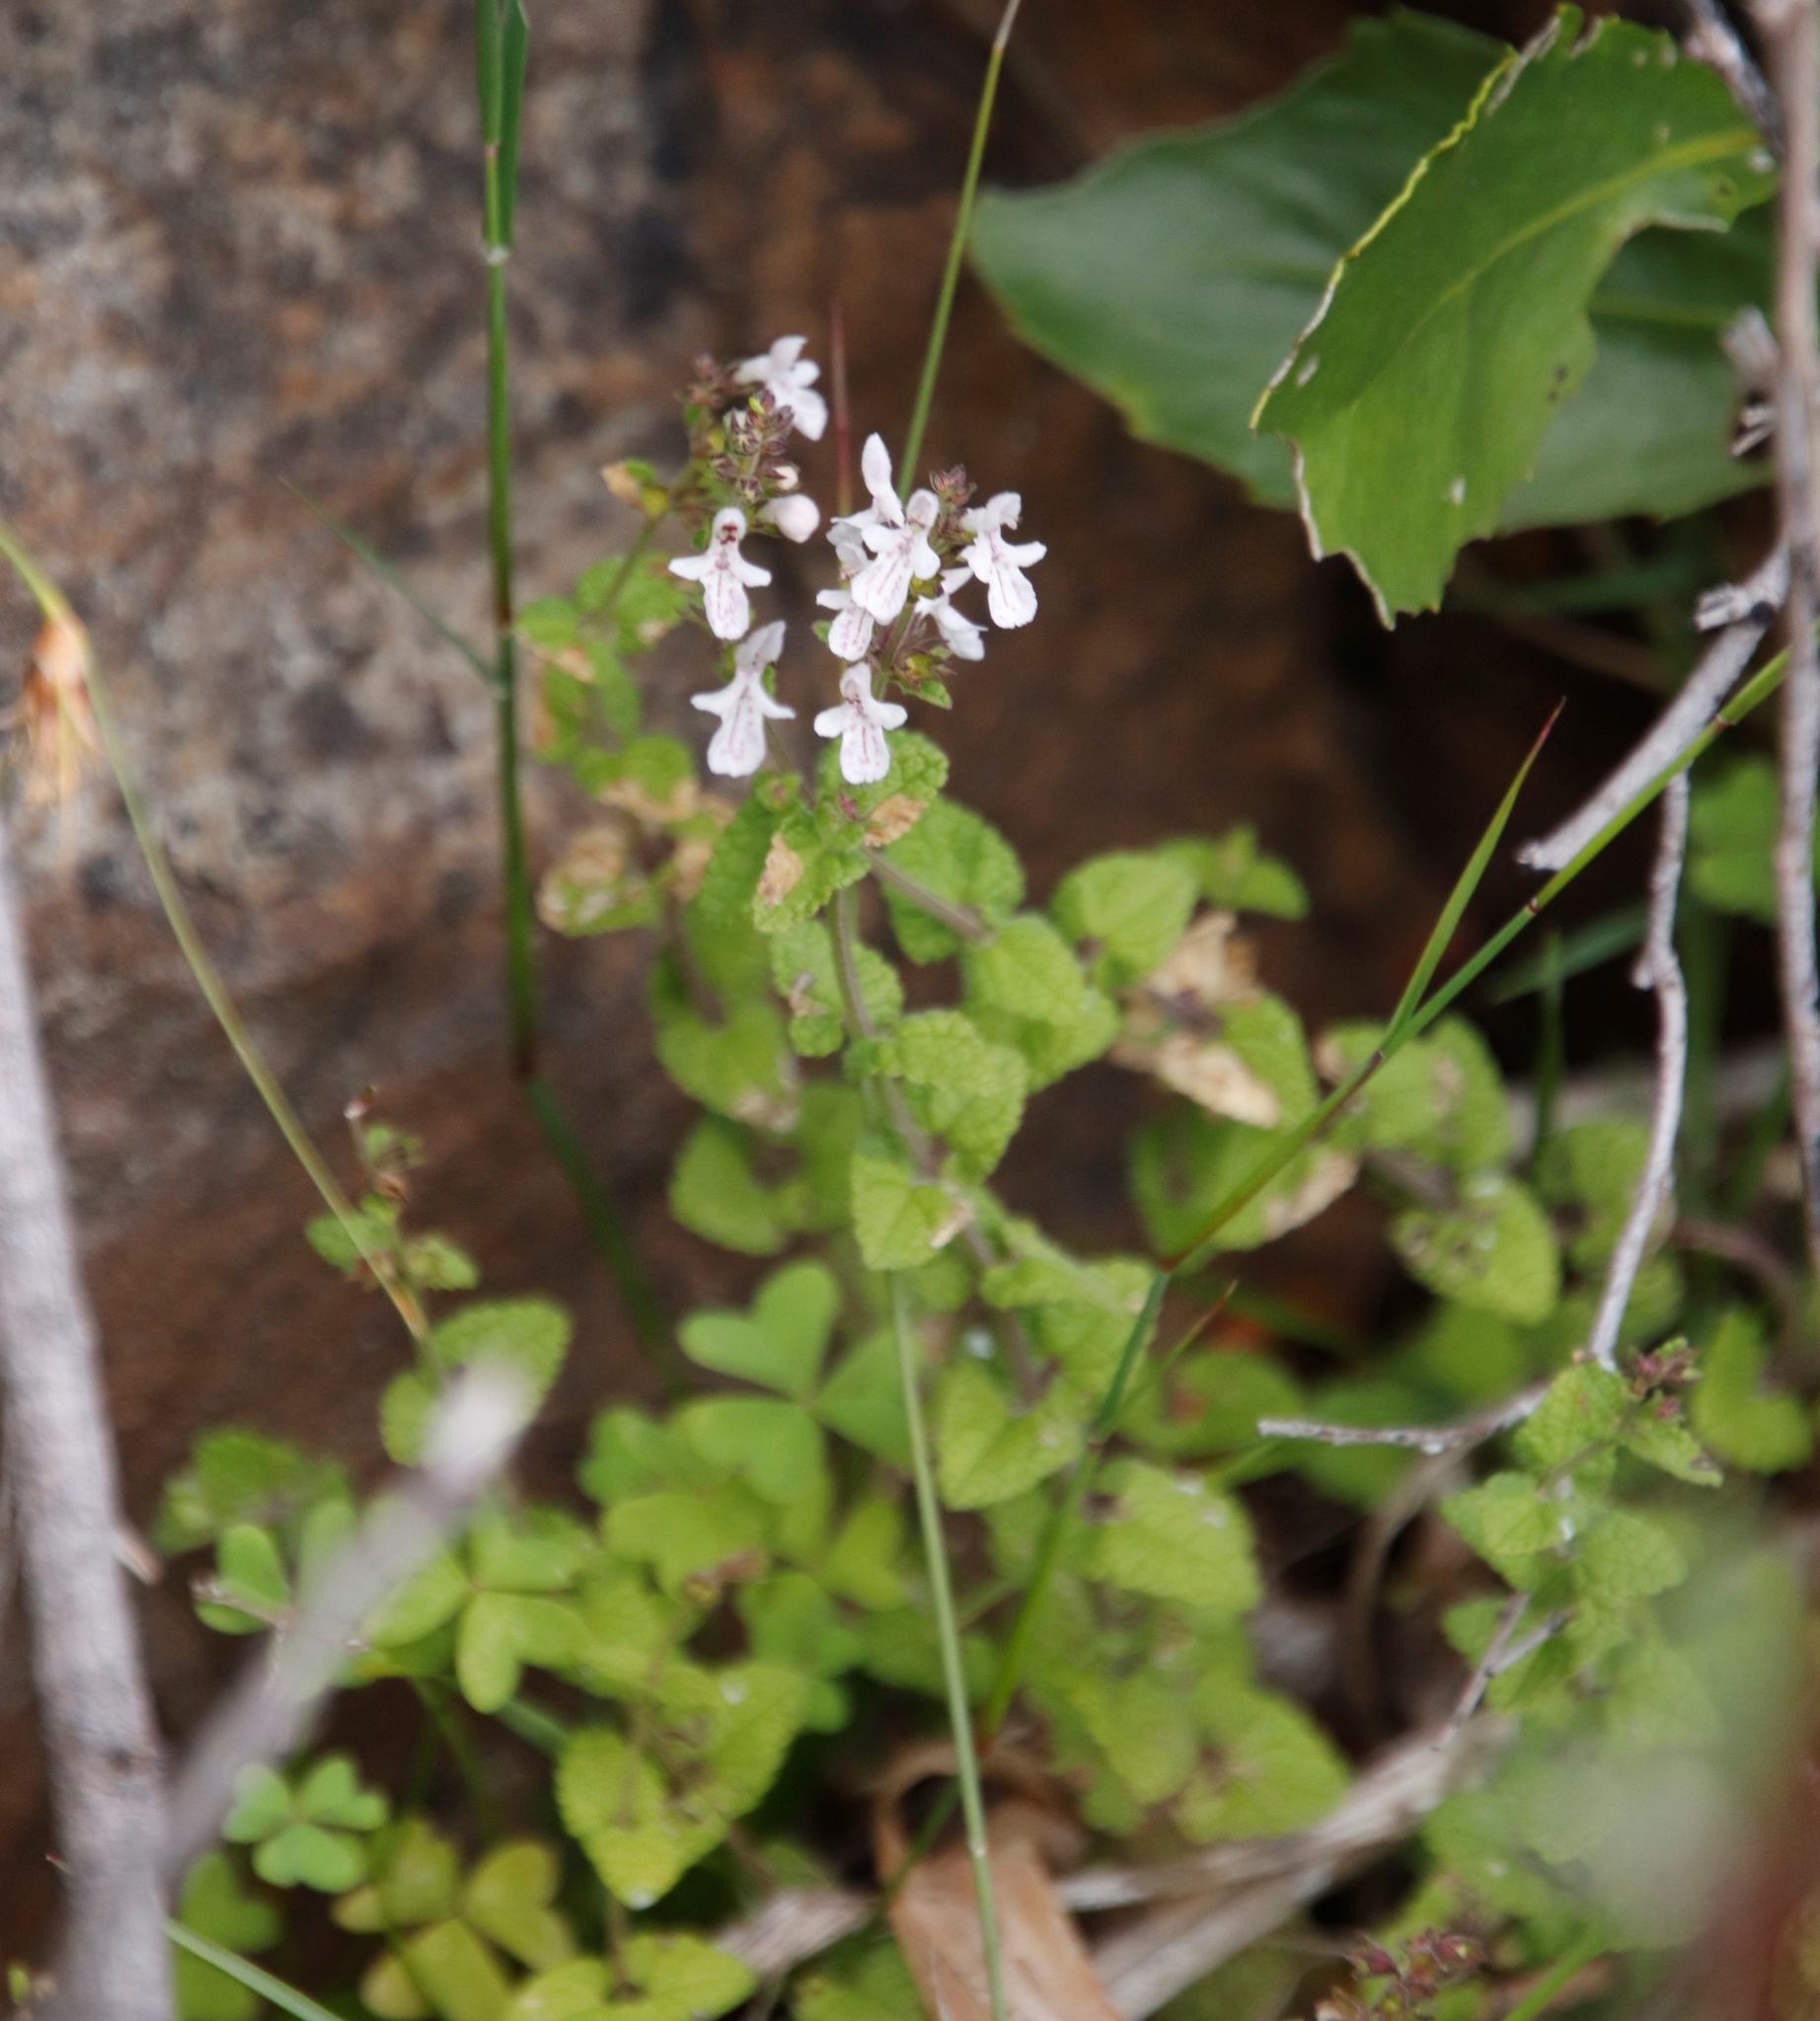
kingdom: Plantae
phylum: Tracheophyta
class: Magnoliopsida
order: Lamiales
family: Lamiaceae
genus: Stachys
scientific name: Stachys aethiopica
